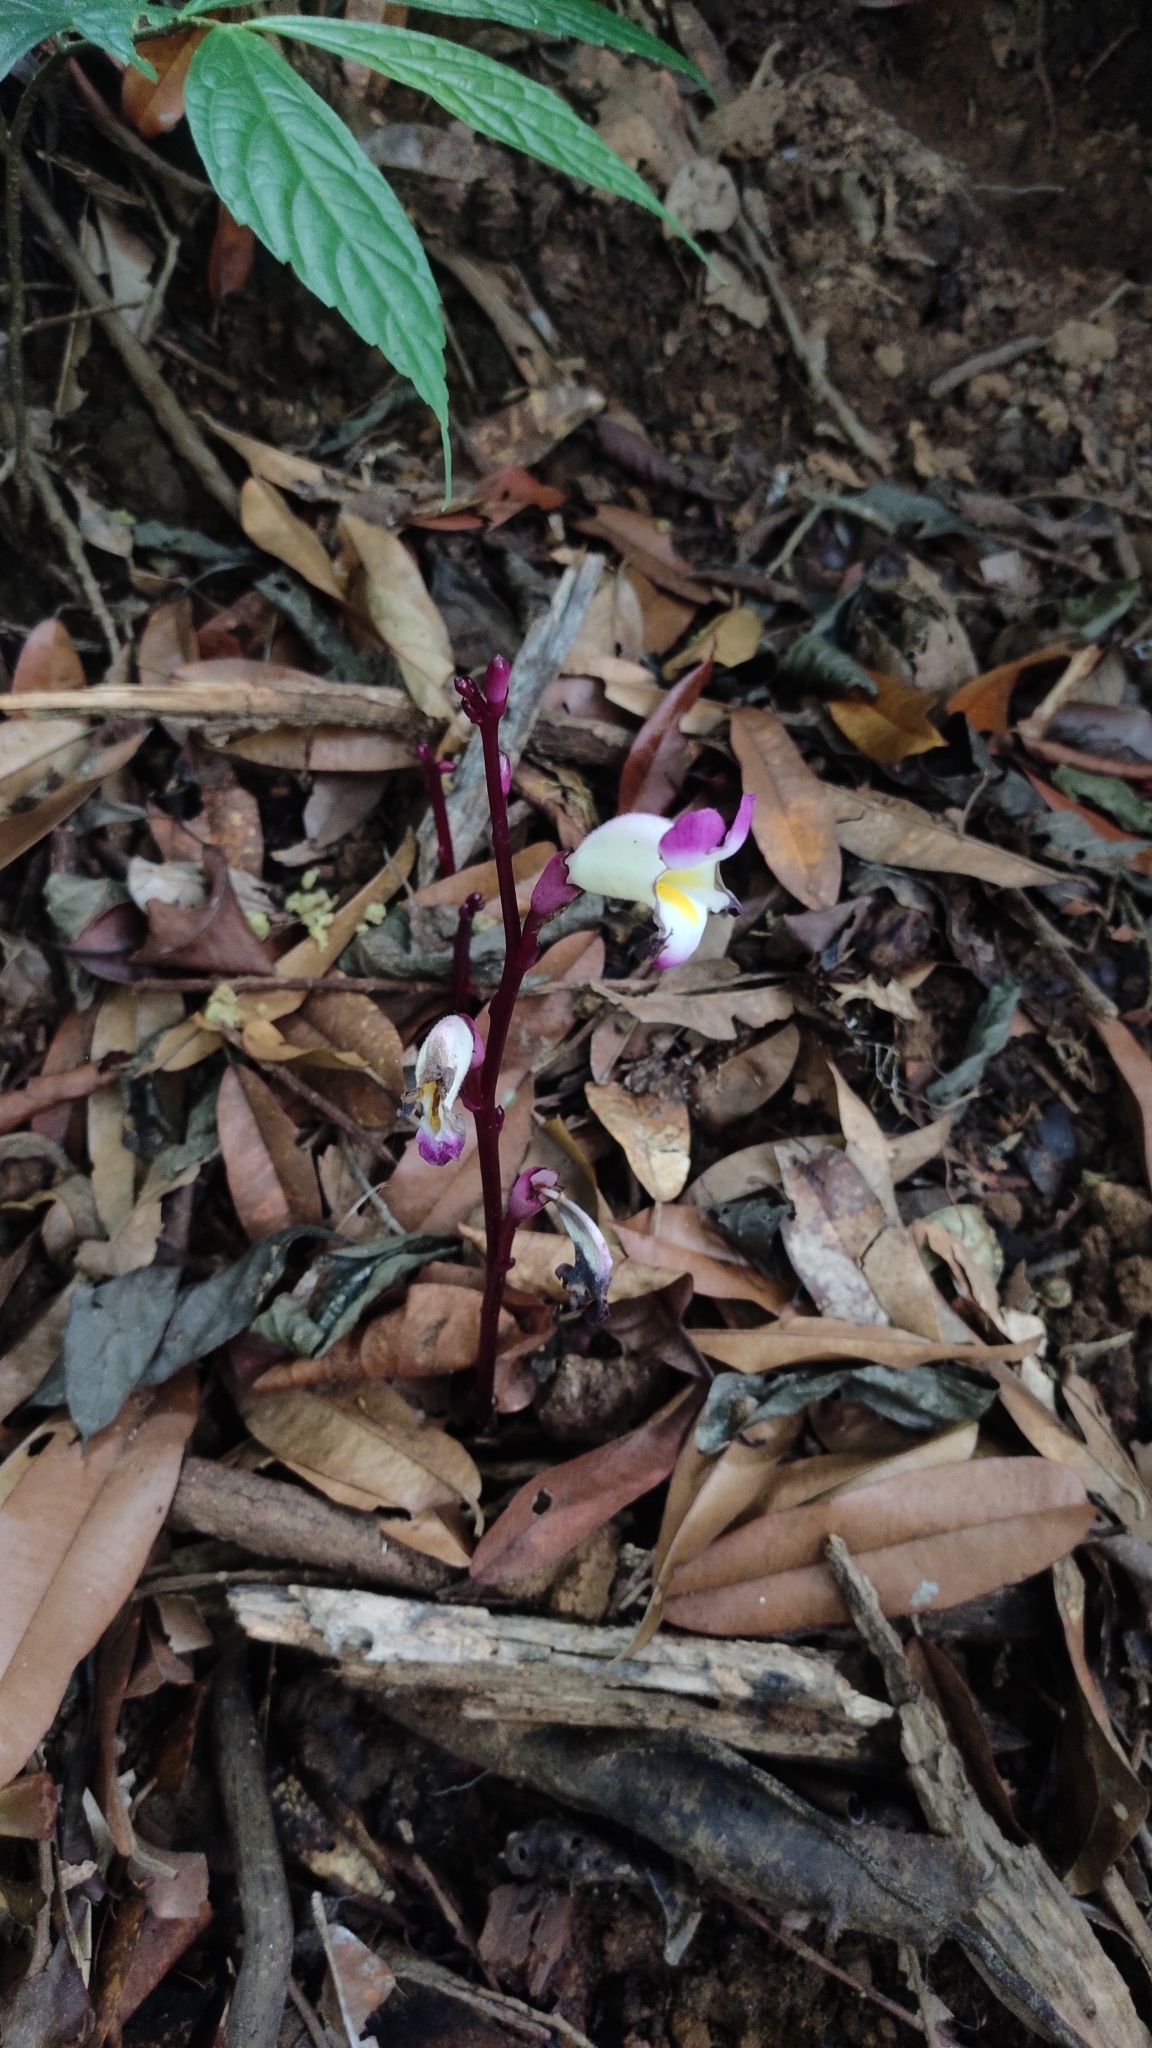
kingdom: Plantae
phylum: Tracheophyta
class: Magnoliopsida
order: Lamiales
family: Orobanchaceae
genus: Christisonia
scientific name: Christisonia tubulosa
